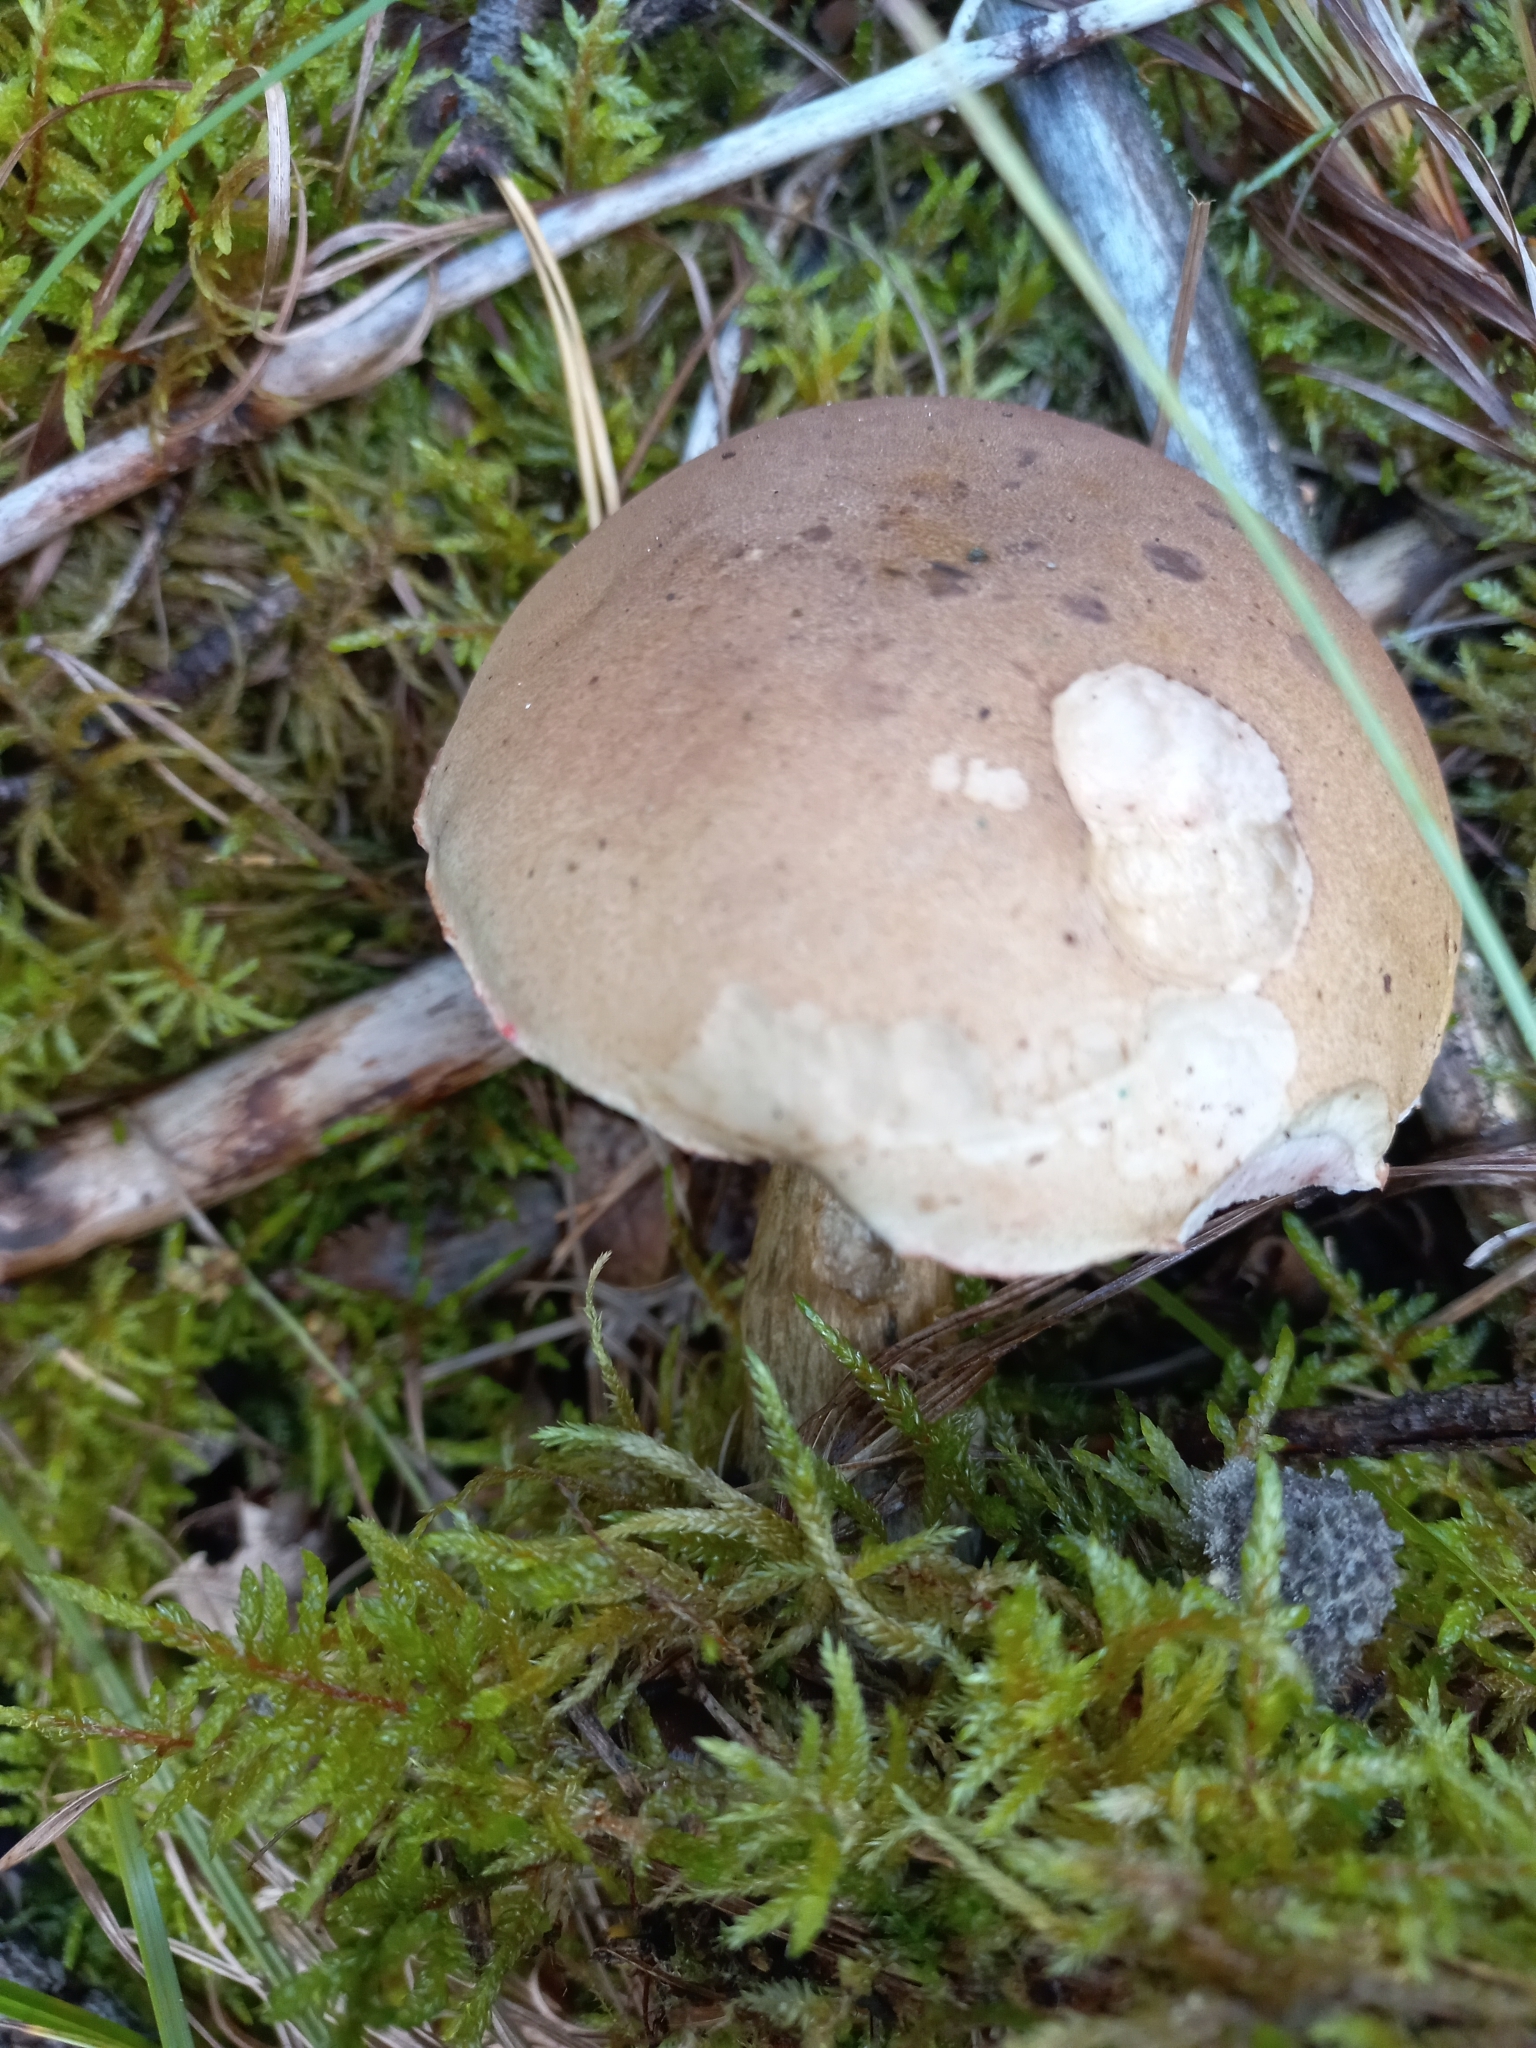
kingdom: Fungi
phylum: Basidiomycota
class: Agaricomycetes
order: Boletales
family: Boletaceae
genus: Tylopilus
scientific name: Tylopilus felleus
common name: Bitter bolete
